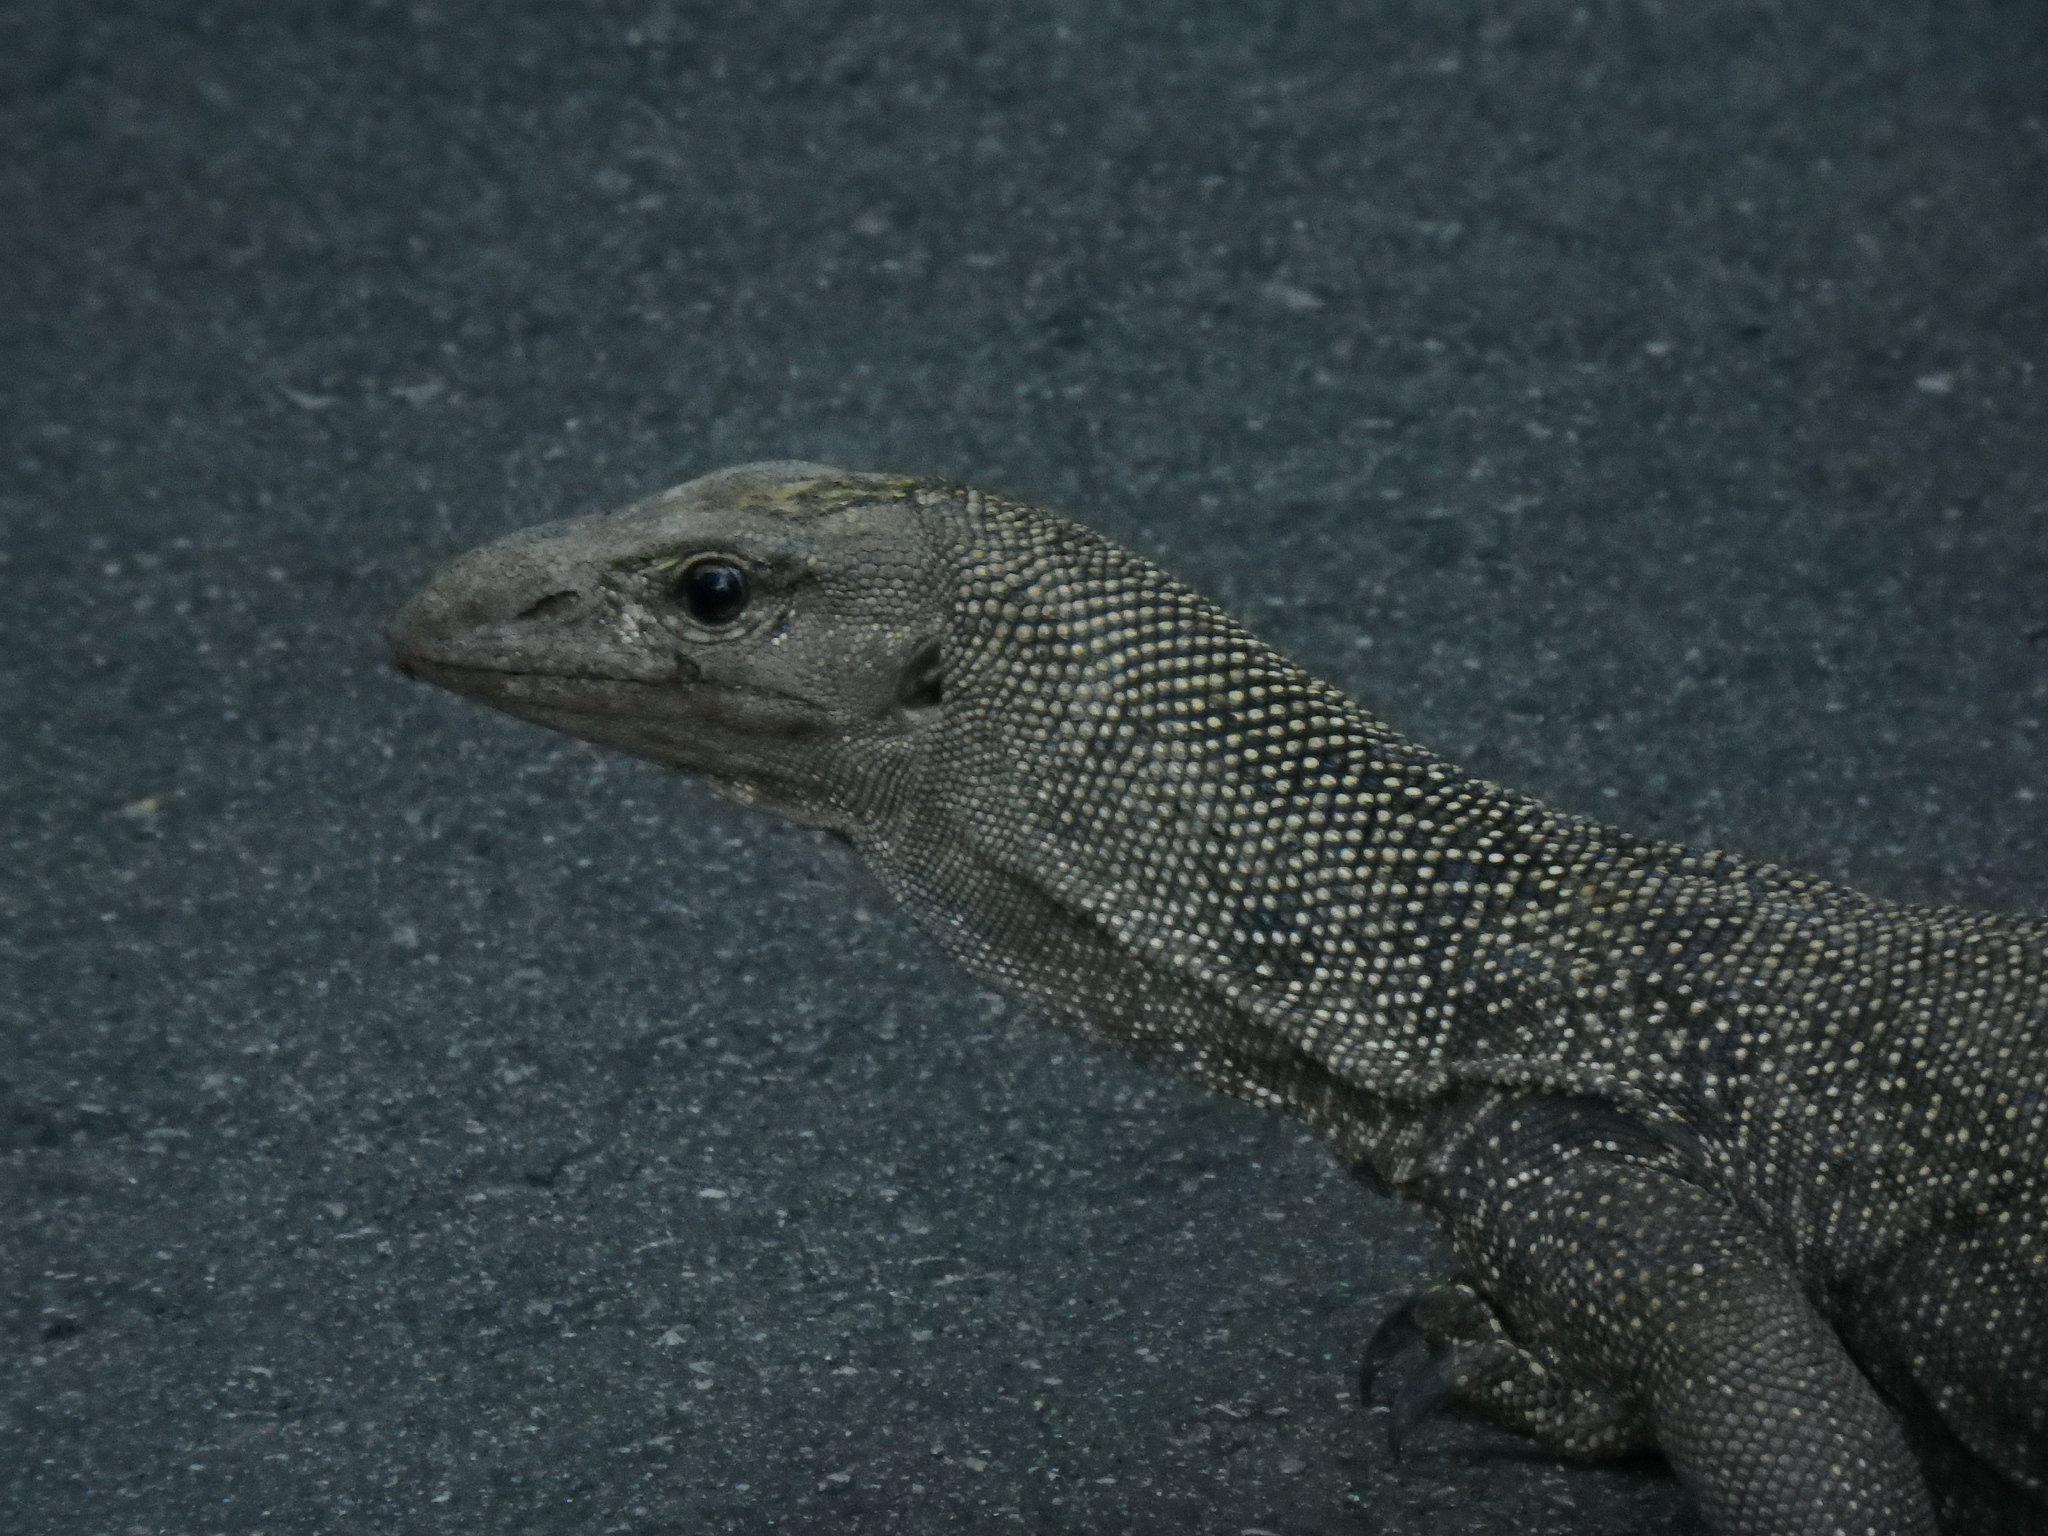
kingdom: Animalia
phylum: Chordata
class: Squamata
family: Varanidae
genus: Varanus
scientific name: Varanus nebulosus
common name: Clouded monitor
